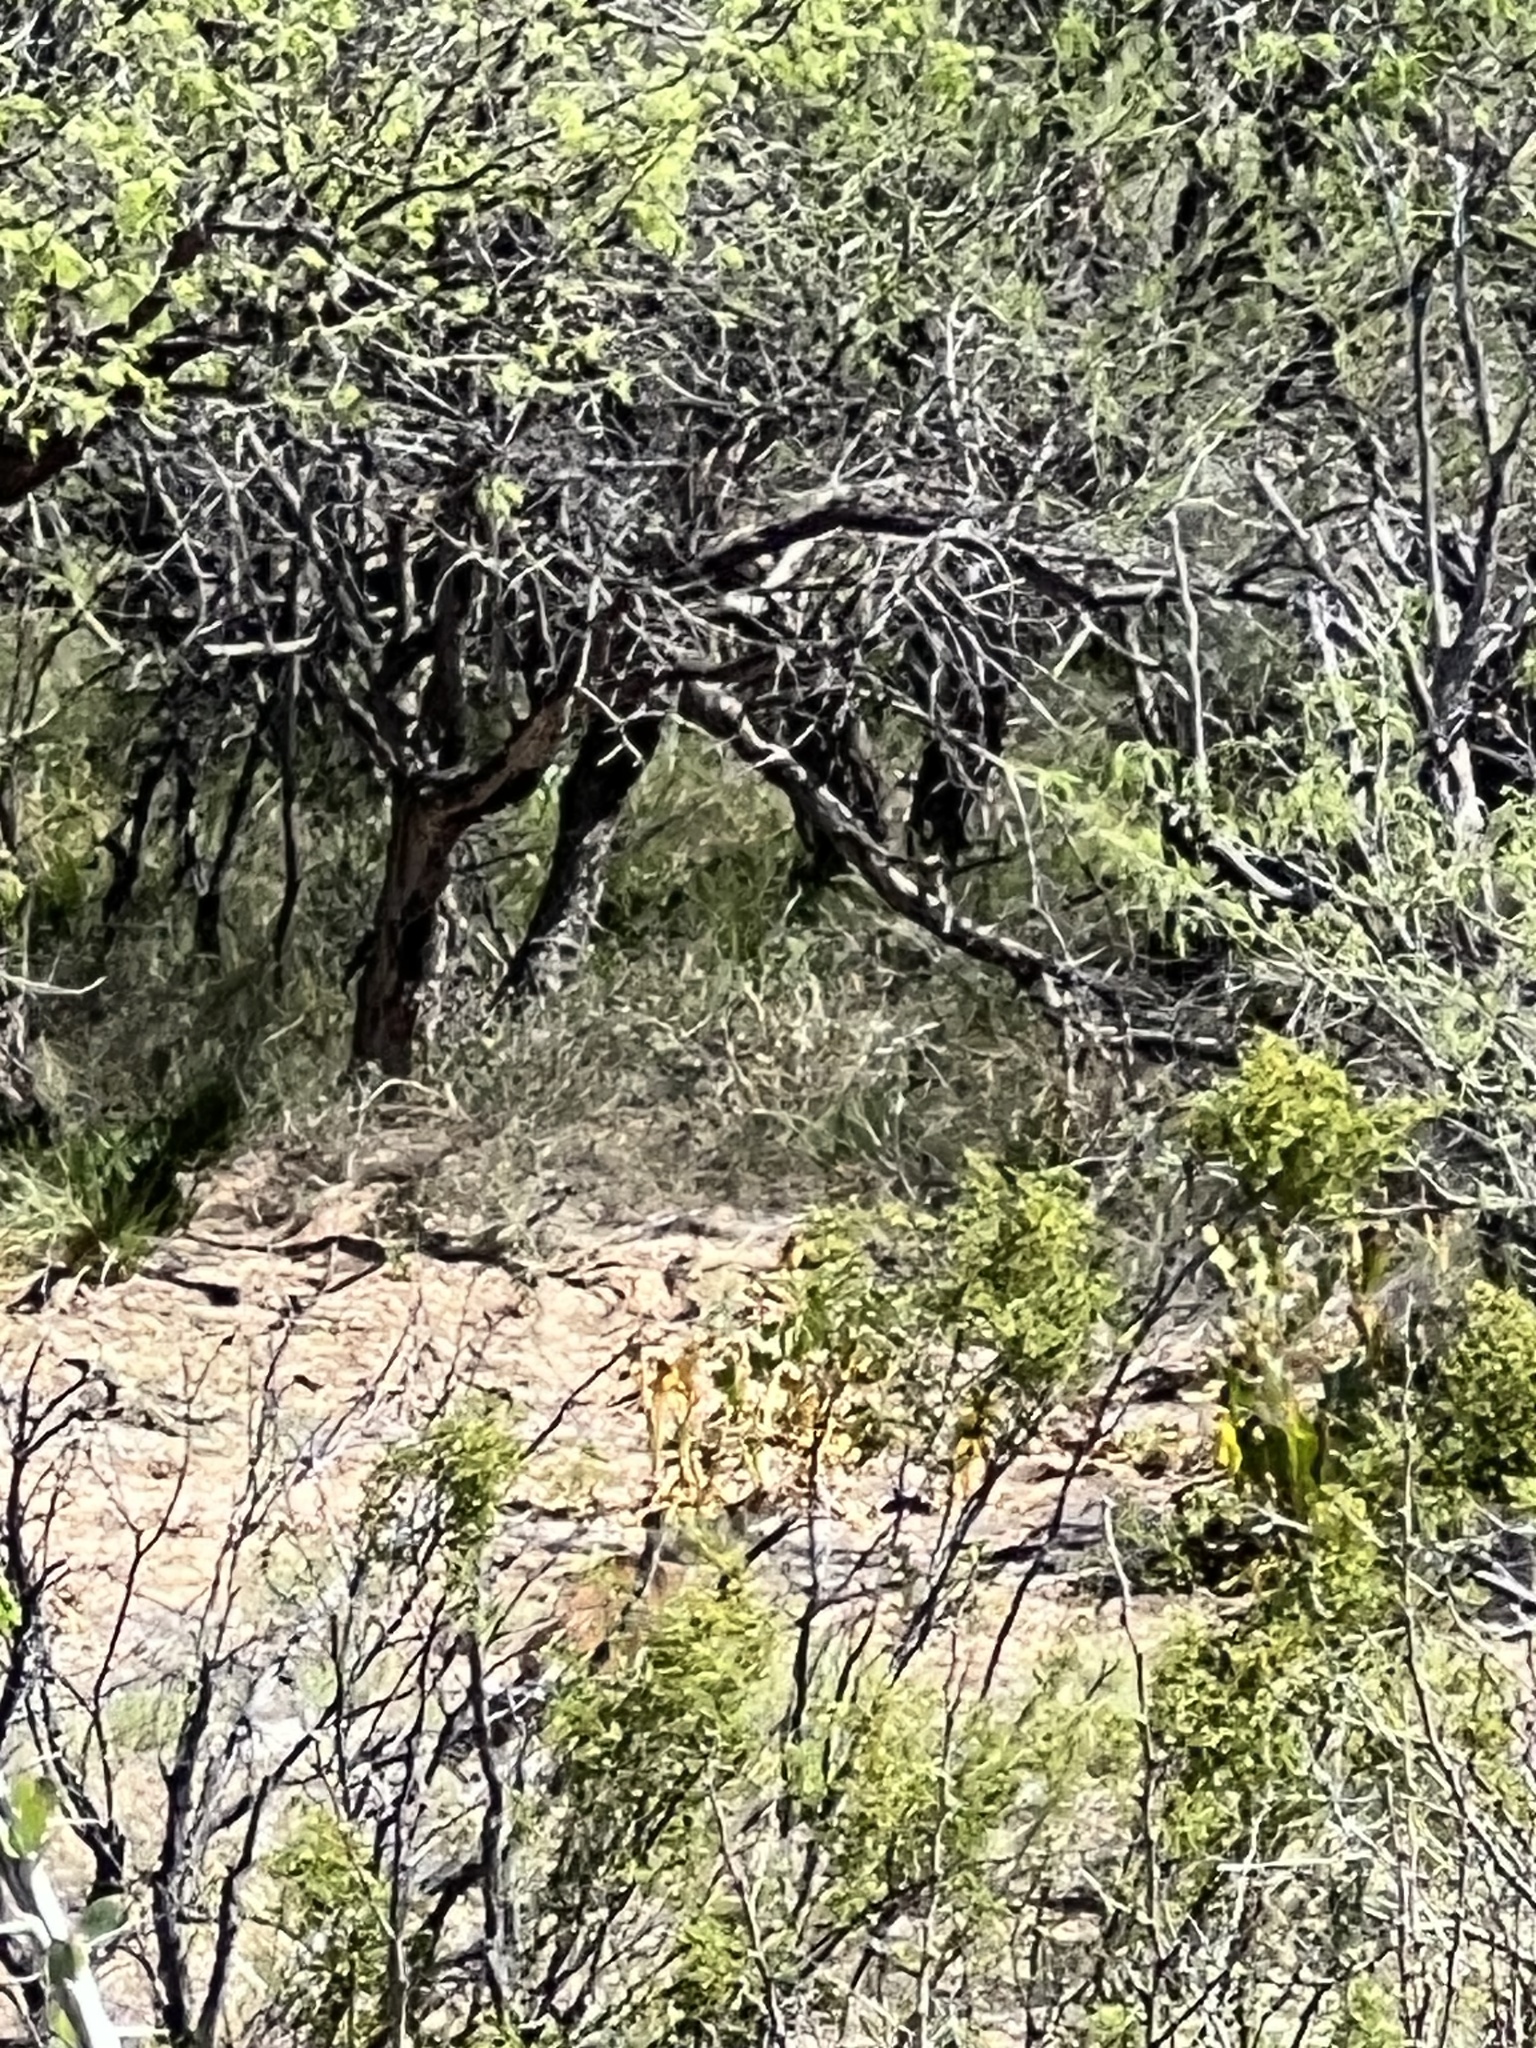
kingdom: Animalia
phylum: Chordata
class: Mammalia
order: Carnivora
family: Procyonidae
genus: Nasua
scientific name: Nasua narica
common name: White-nosed coati
